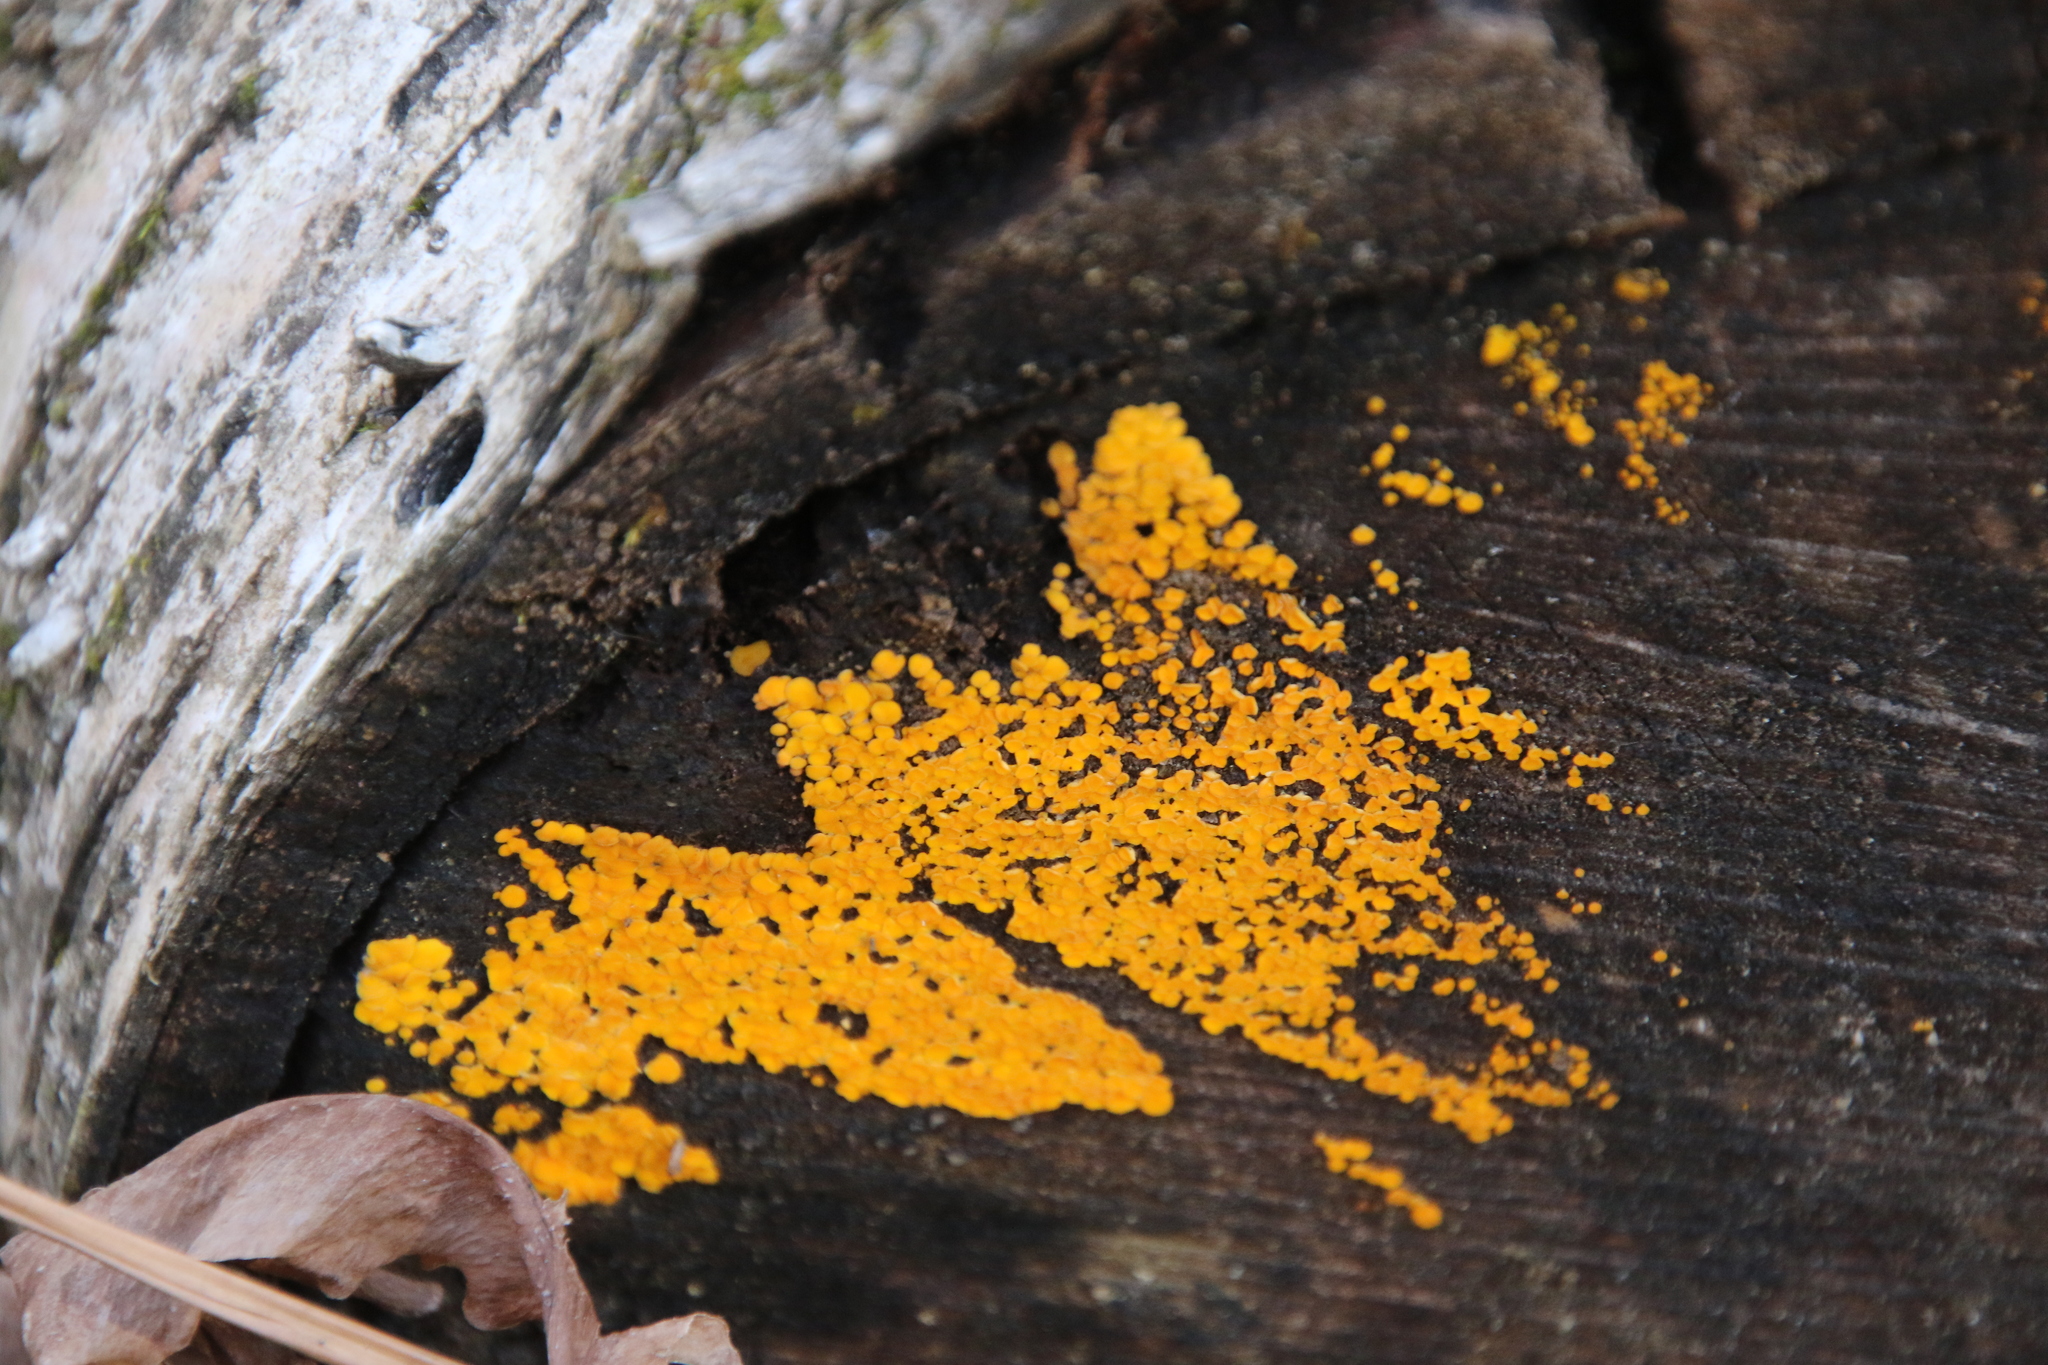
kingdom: Fungi
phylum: Ascomycota
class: Leotiomycetes
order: Helotiales
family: Pezizellaceae
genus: Calycina
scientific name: Calycina citrina
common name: Yellow fairy cups
